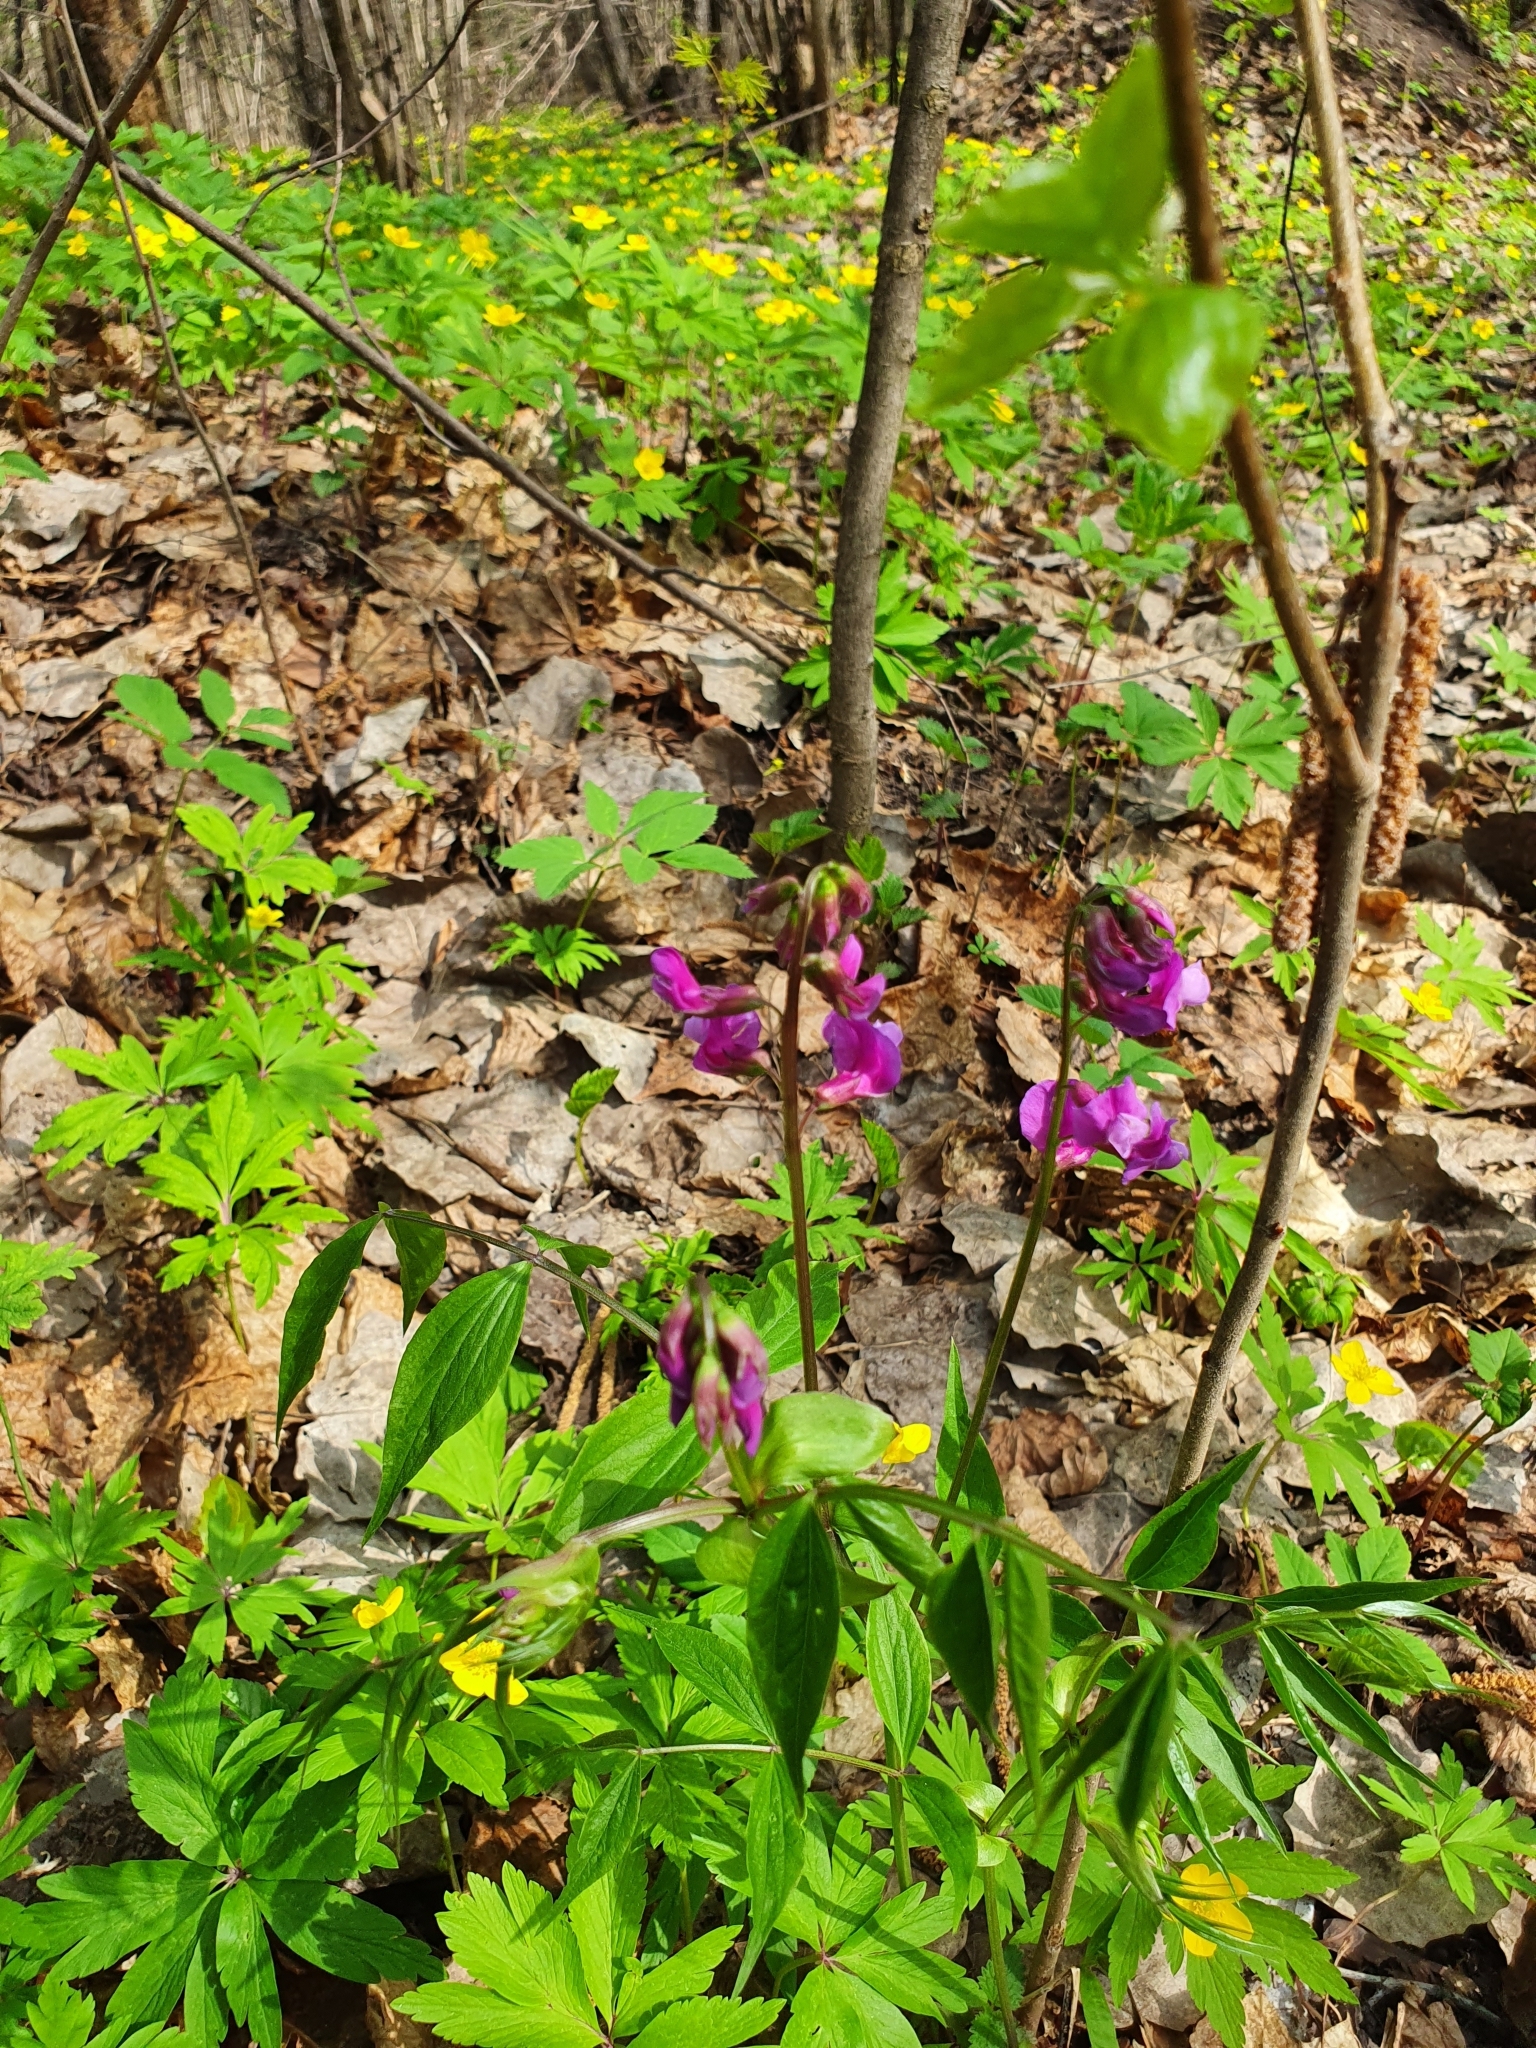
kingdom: Plantae
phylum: Tracheophyta
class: Magnoliopsida
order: Fabales
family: Fabaceae
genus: Lathyrus
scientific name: Lathyrus vernus
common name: Spring pea
